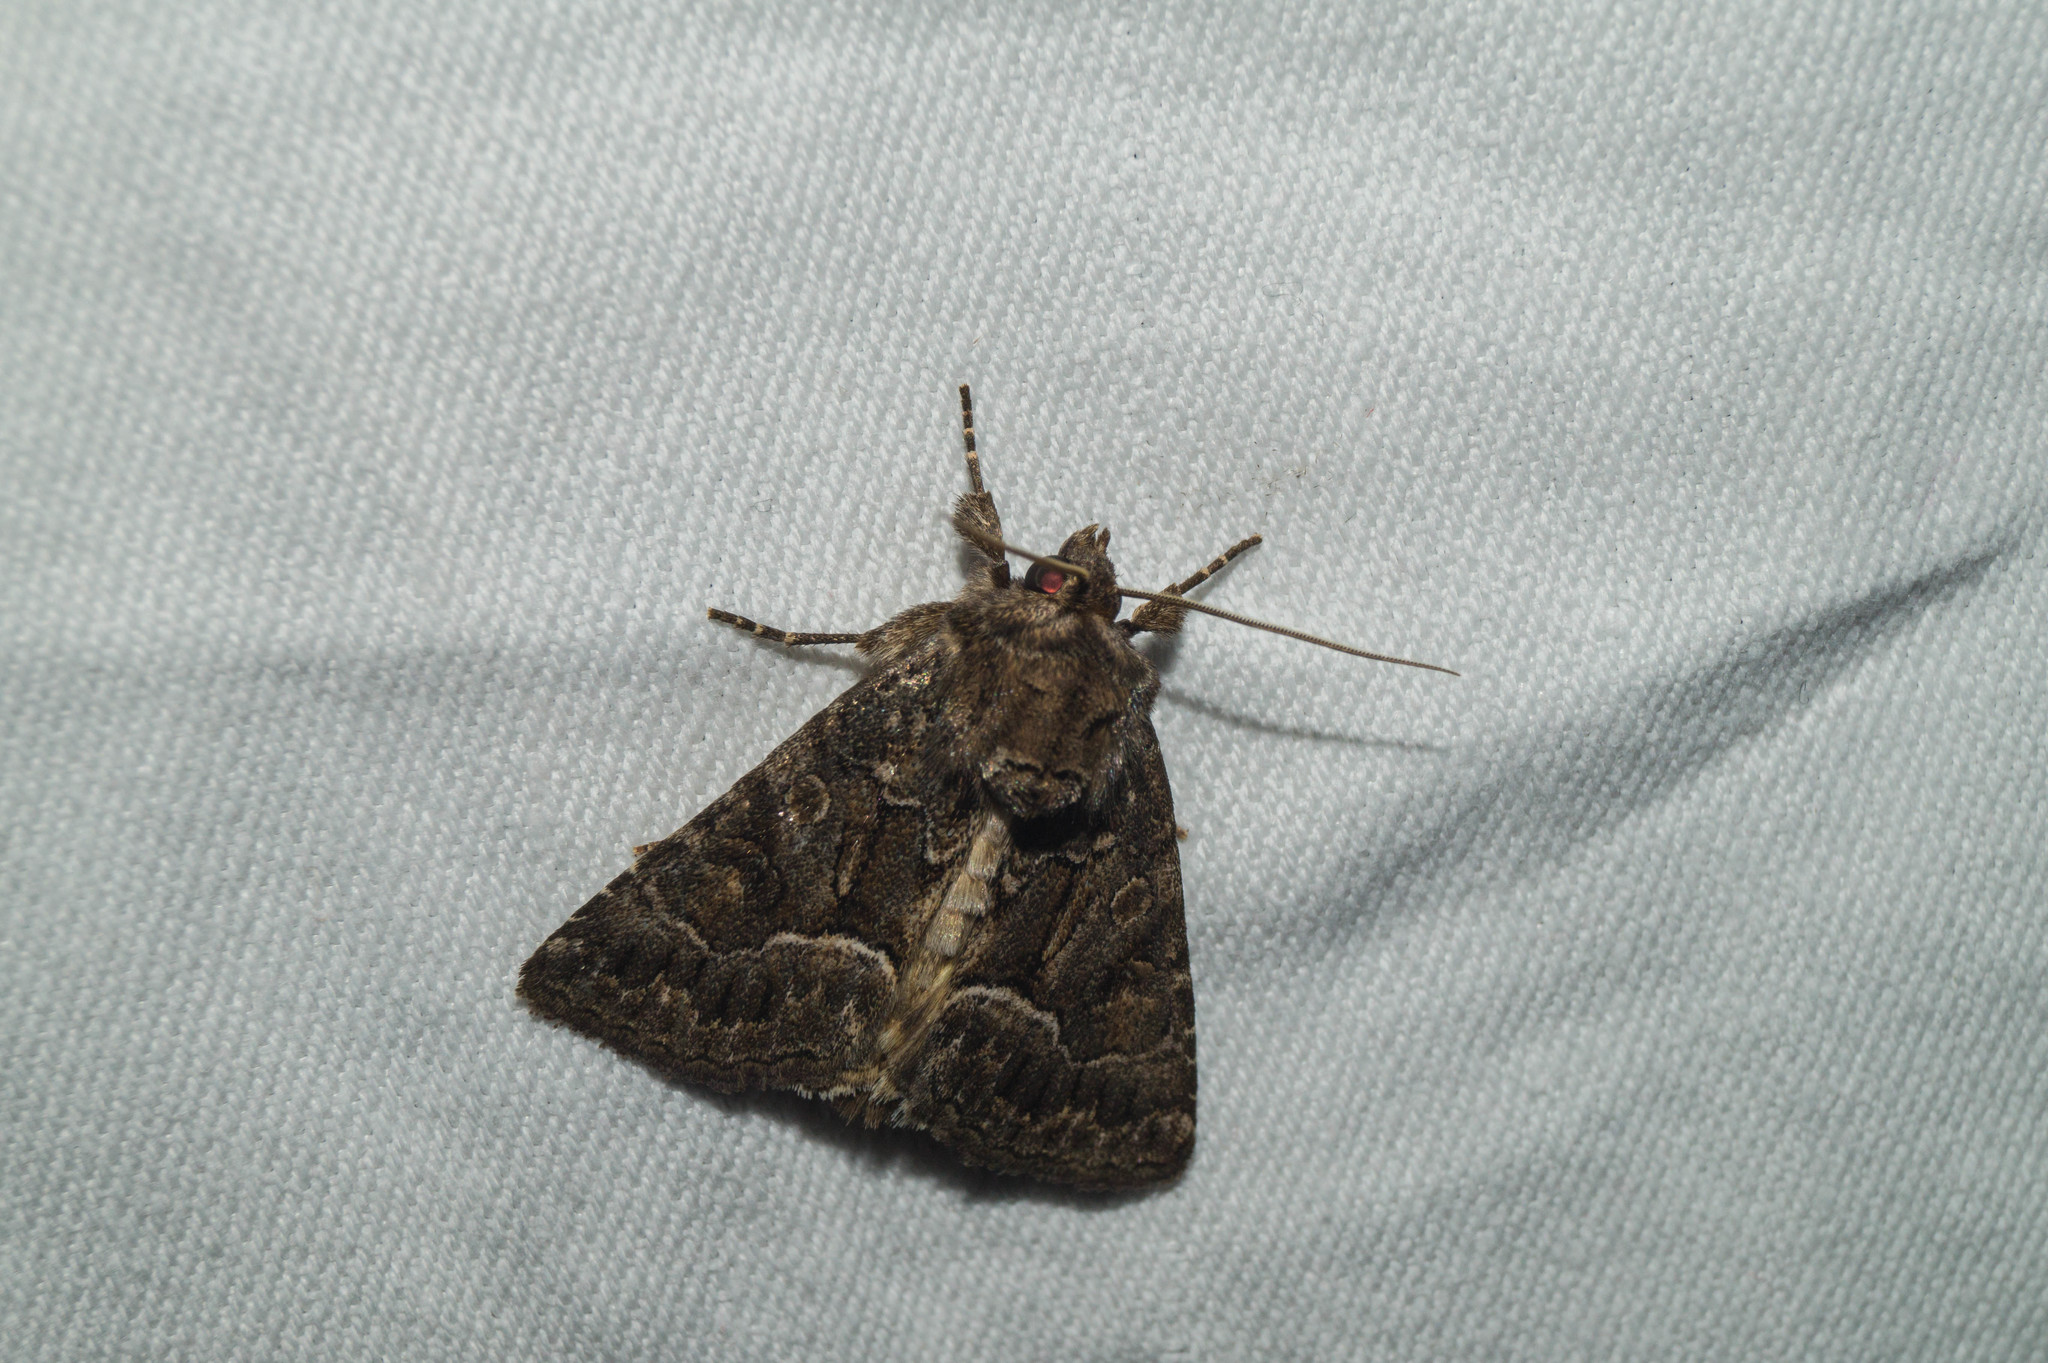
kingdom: Animalia
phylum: Arthropoda
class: Insecta
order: Lepidoptera
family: Noctuidae
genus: Thalpophila
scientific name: Thalpophila matura
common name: Straw underwing
